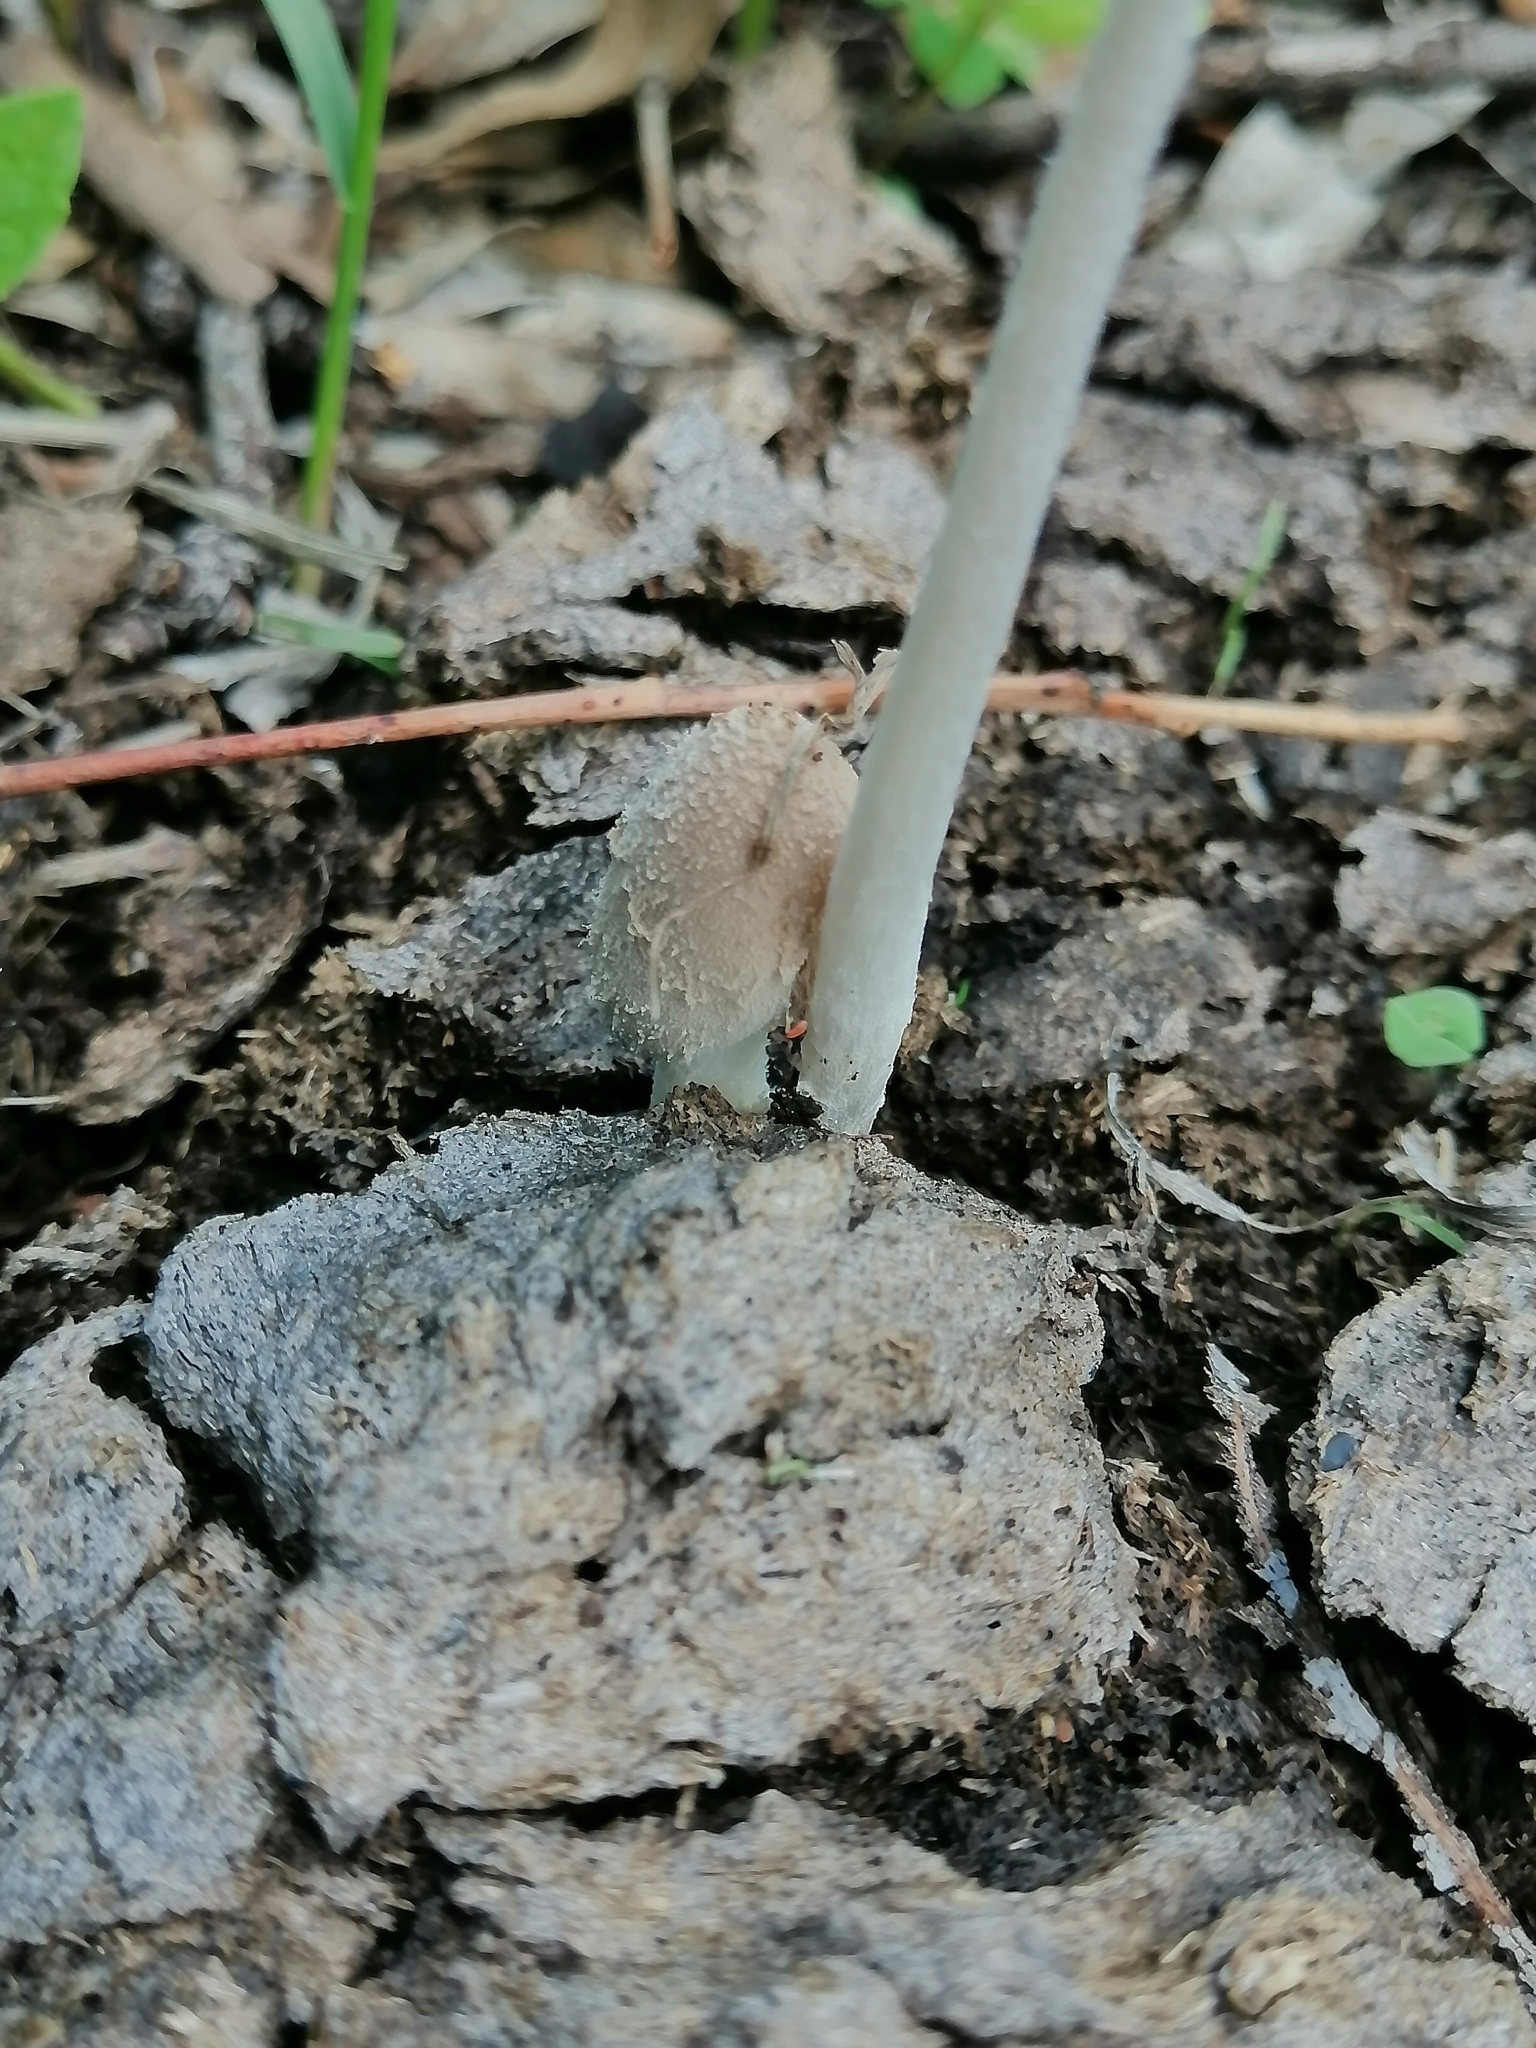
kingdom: Fungi
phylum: Basidiomycota
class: Agaricomycetes
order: Agaricales
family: Psathyrellaceae
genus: Coprinopsis
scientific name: Coprinopsis pseudonivea
